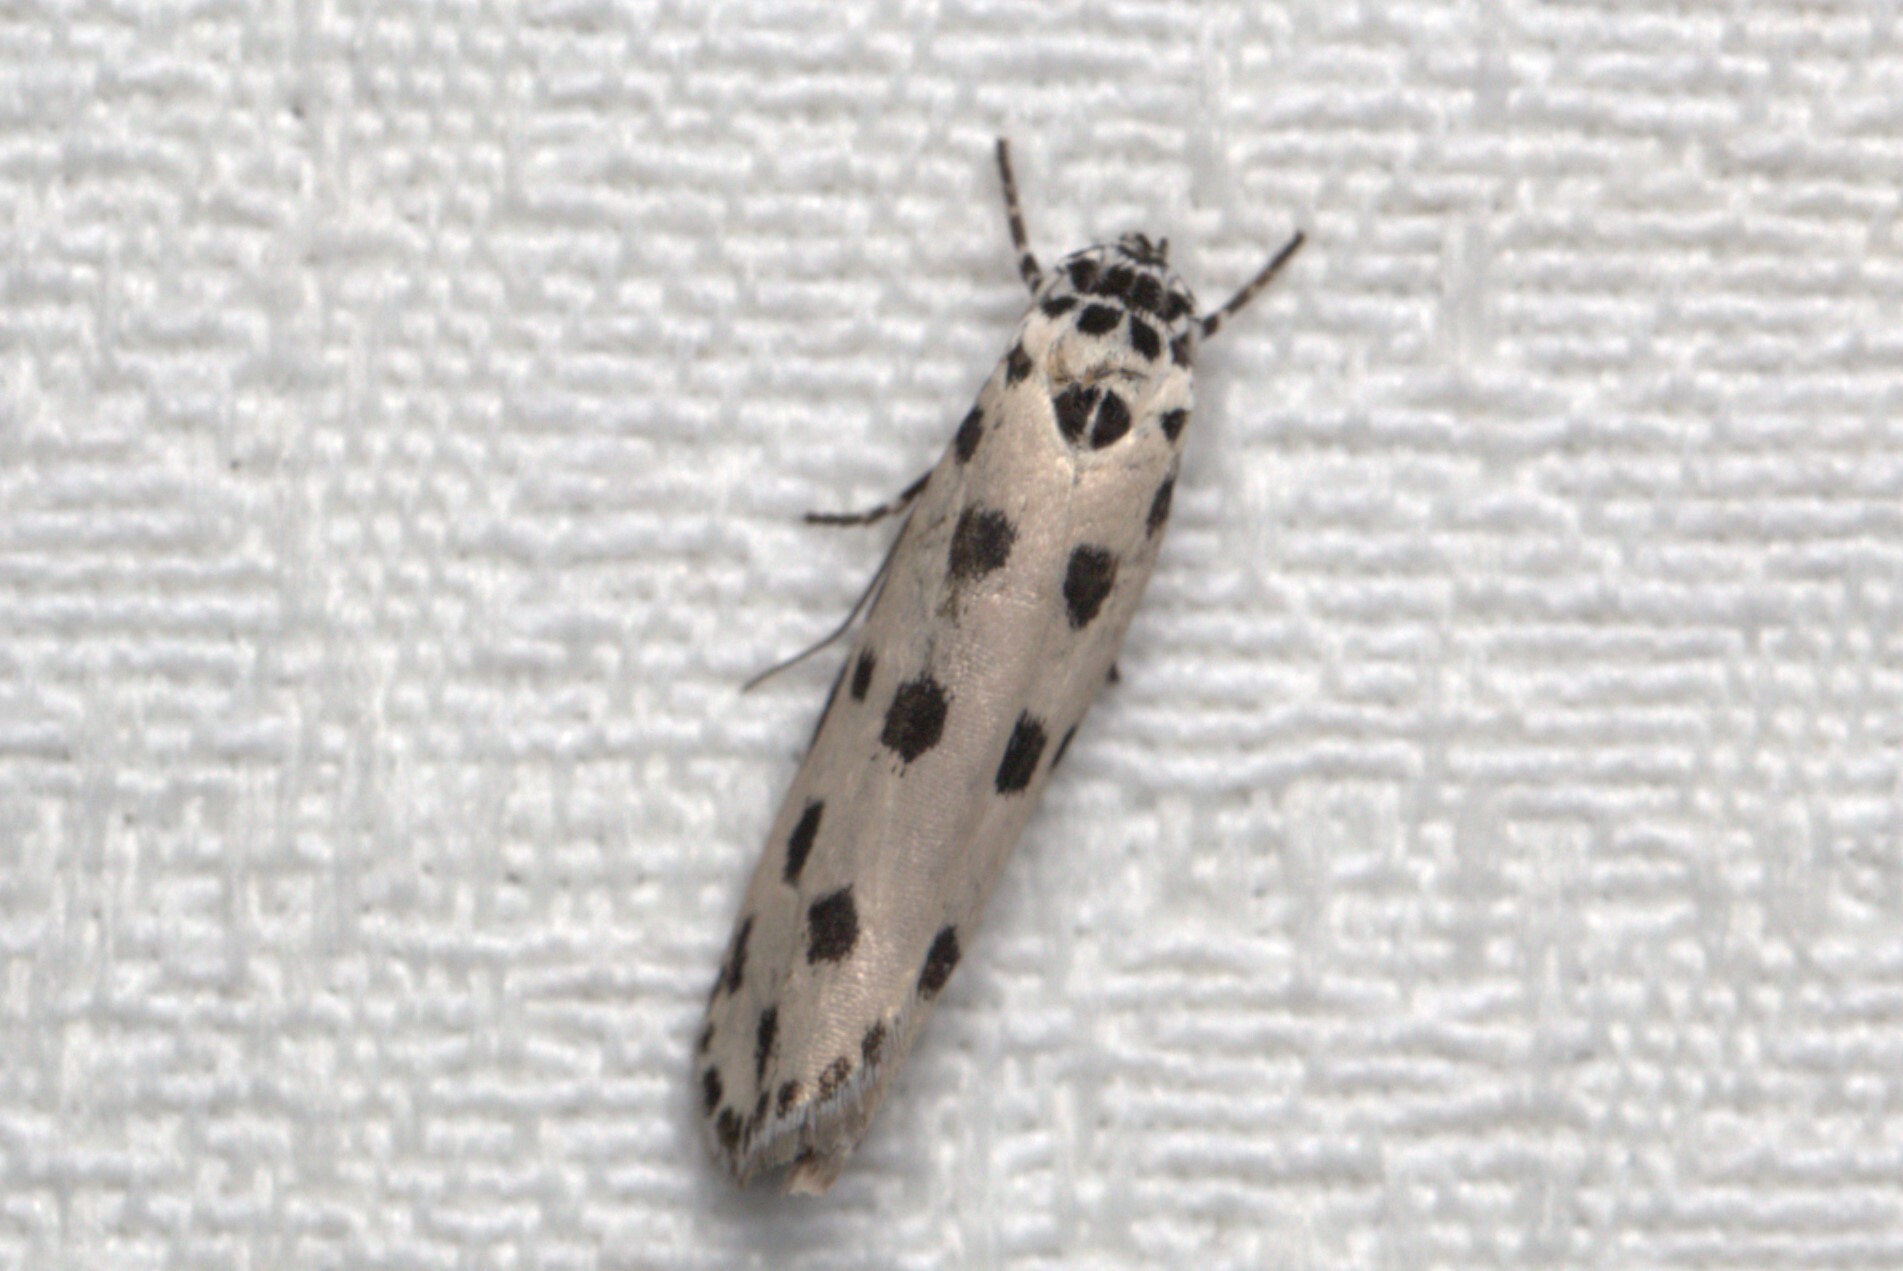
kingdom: Animalia
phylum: Arthropoda
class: Insecta
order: Lepidoptera
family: Ethmiidae
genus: Ethmia
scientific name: Ethmia sphaerosticha
